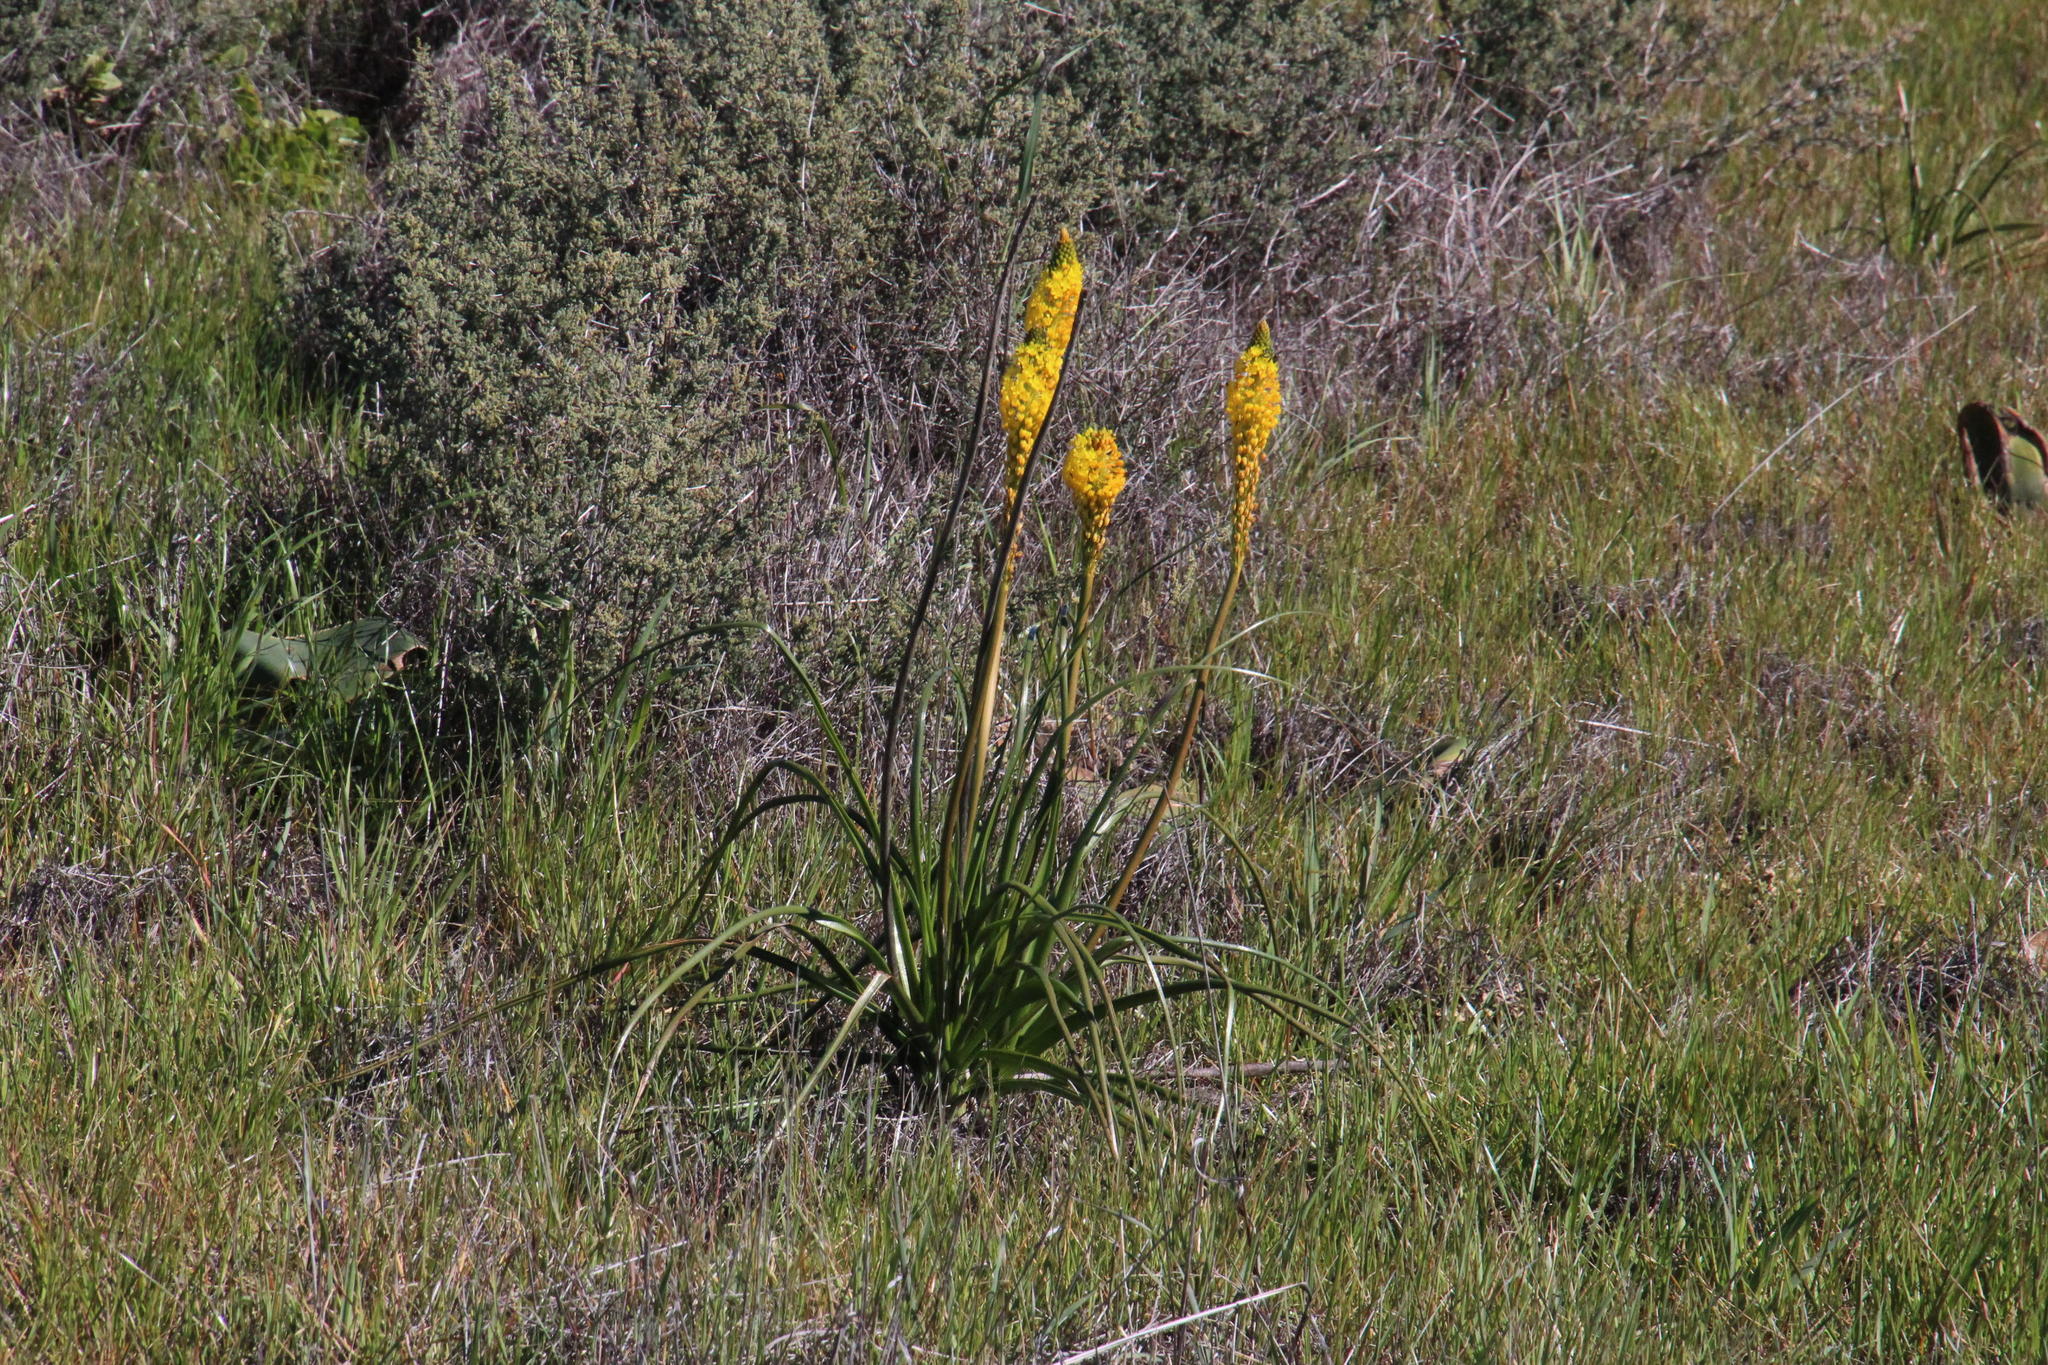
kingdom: Plantae
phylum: Tracheophyta
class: Liliopsida
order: Asparagales
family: Asphodelaceae
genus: Bulbinella
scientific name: Bulbinella latifolia
